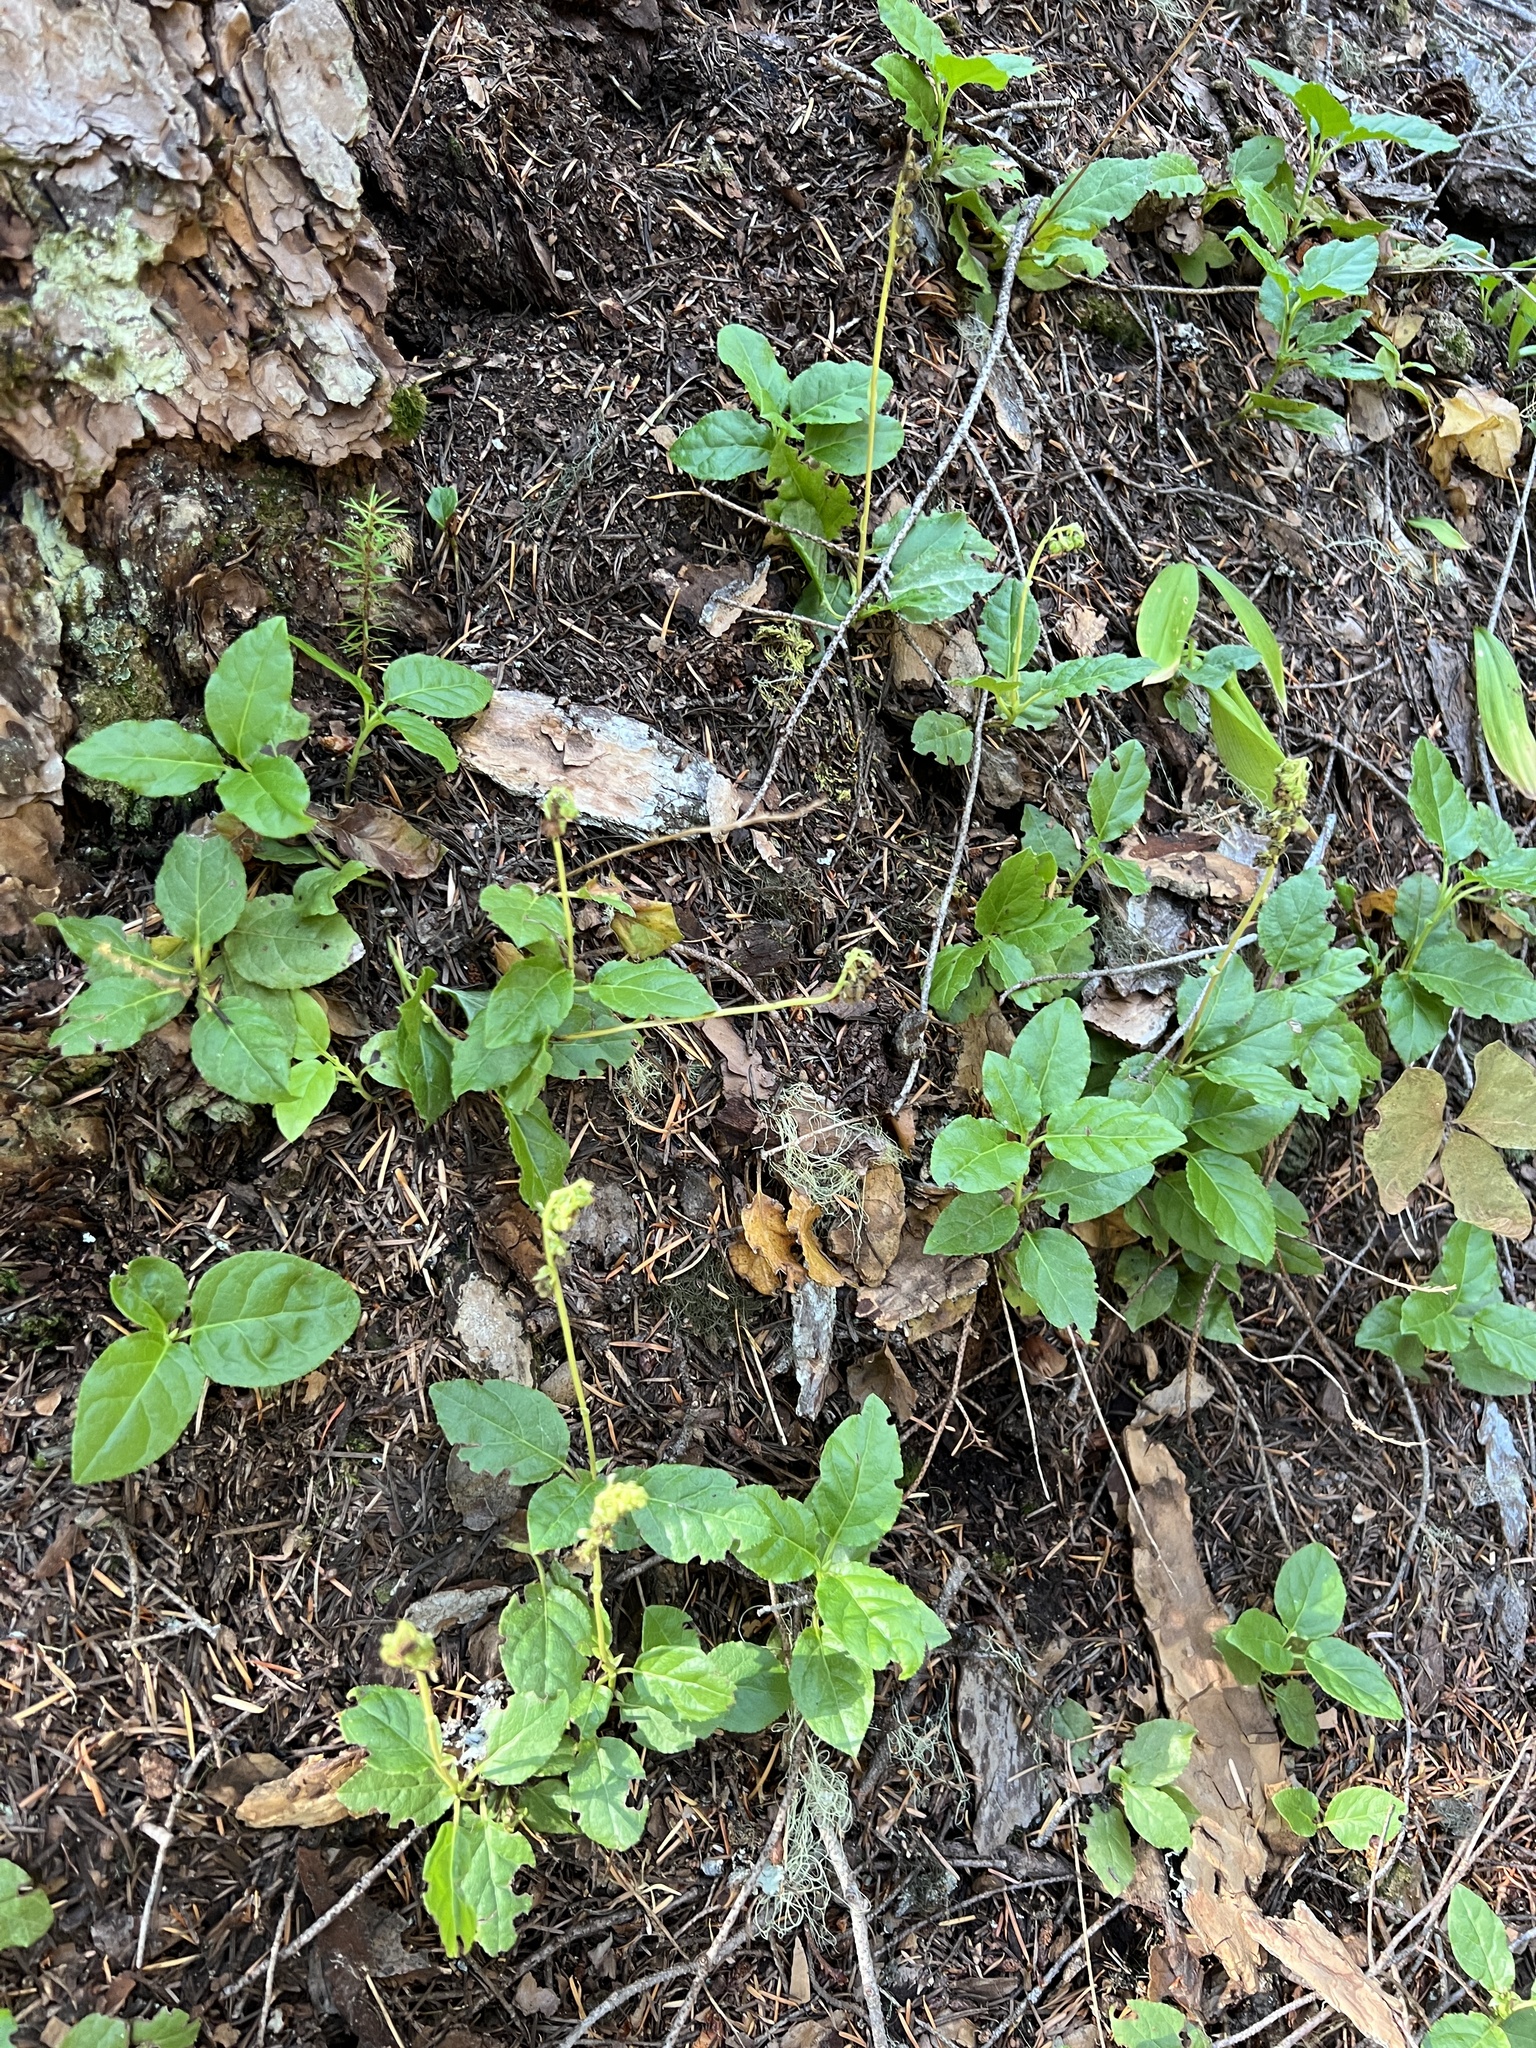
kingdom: Plantae
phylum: Tracheophyta
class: Magnoliopsida
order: Ericales
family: Ericaceae
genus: Orthilia
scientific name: Orthilia secunda
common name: One-sided orthilia
